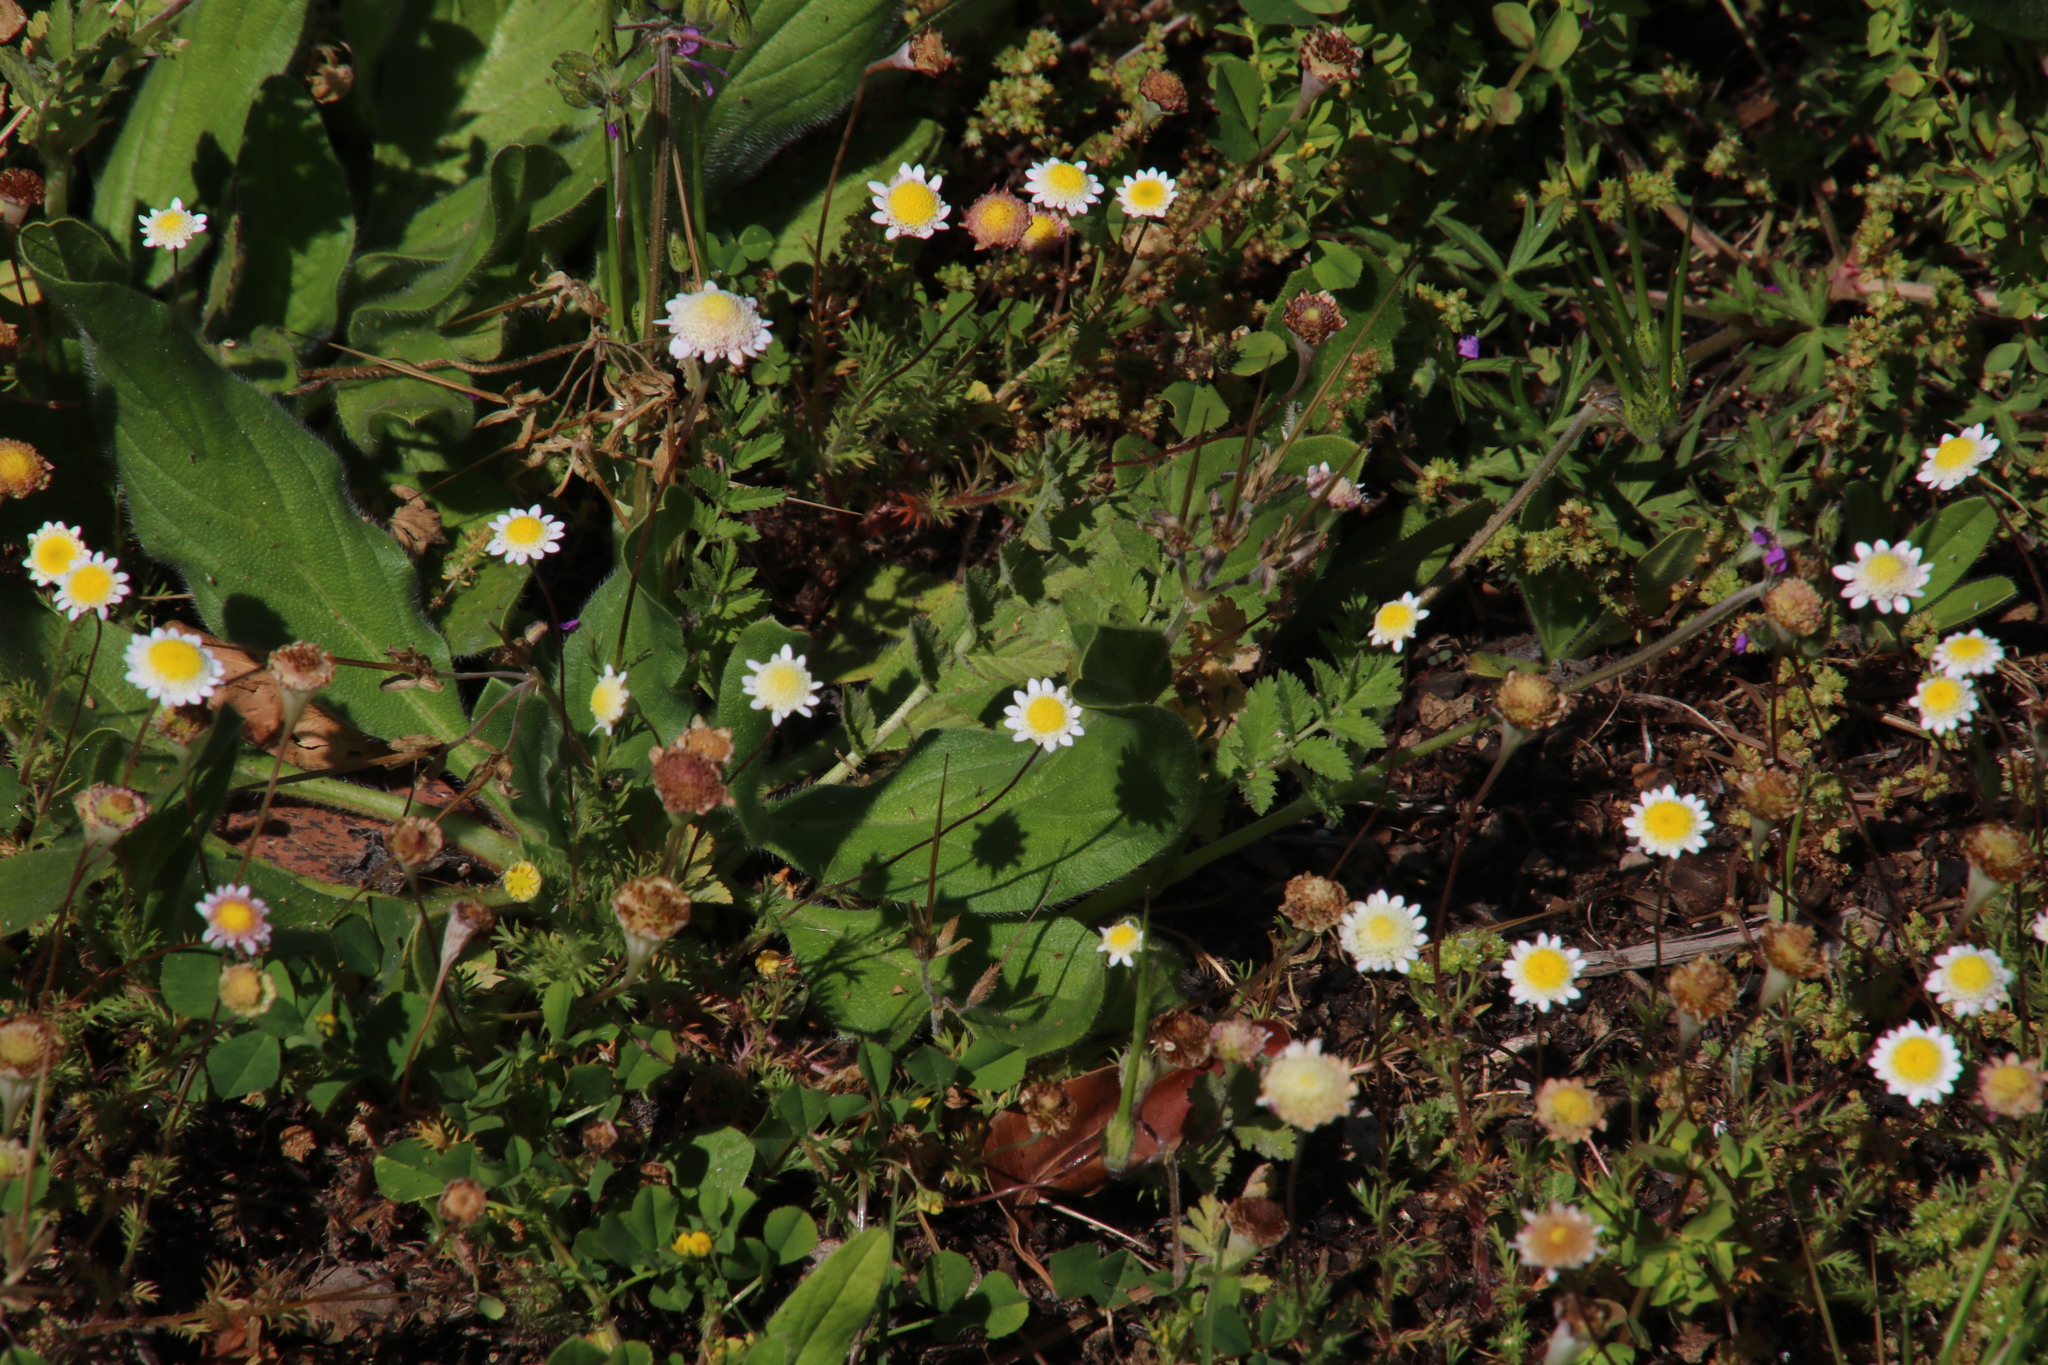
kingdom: Plantae
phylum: Tracheophyta
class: Magnoliopsida
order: Asterales
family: Asteraceae
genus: Cotula
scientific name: Cotula turbinata
